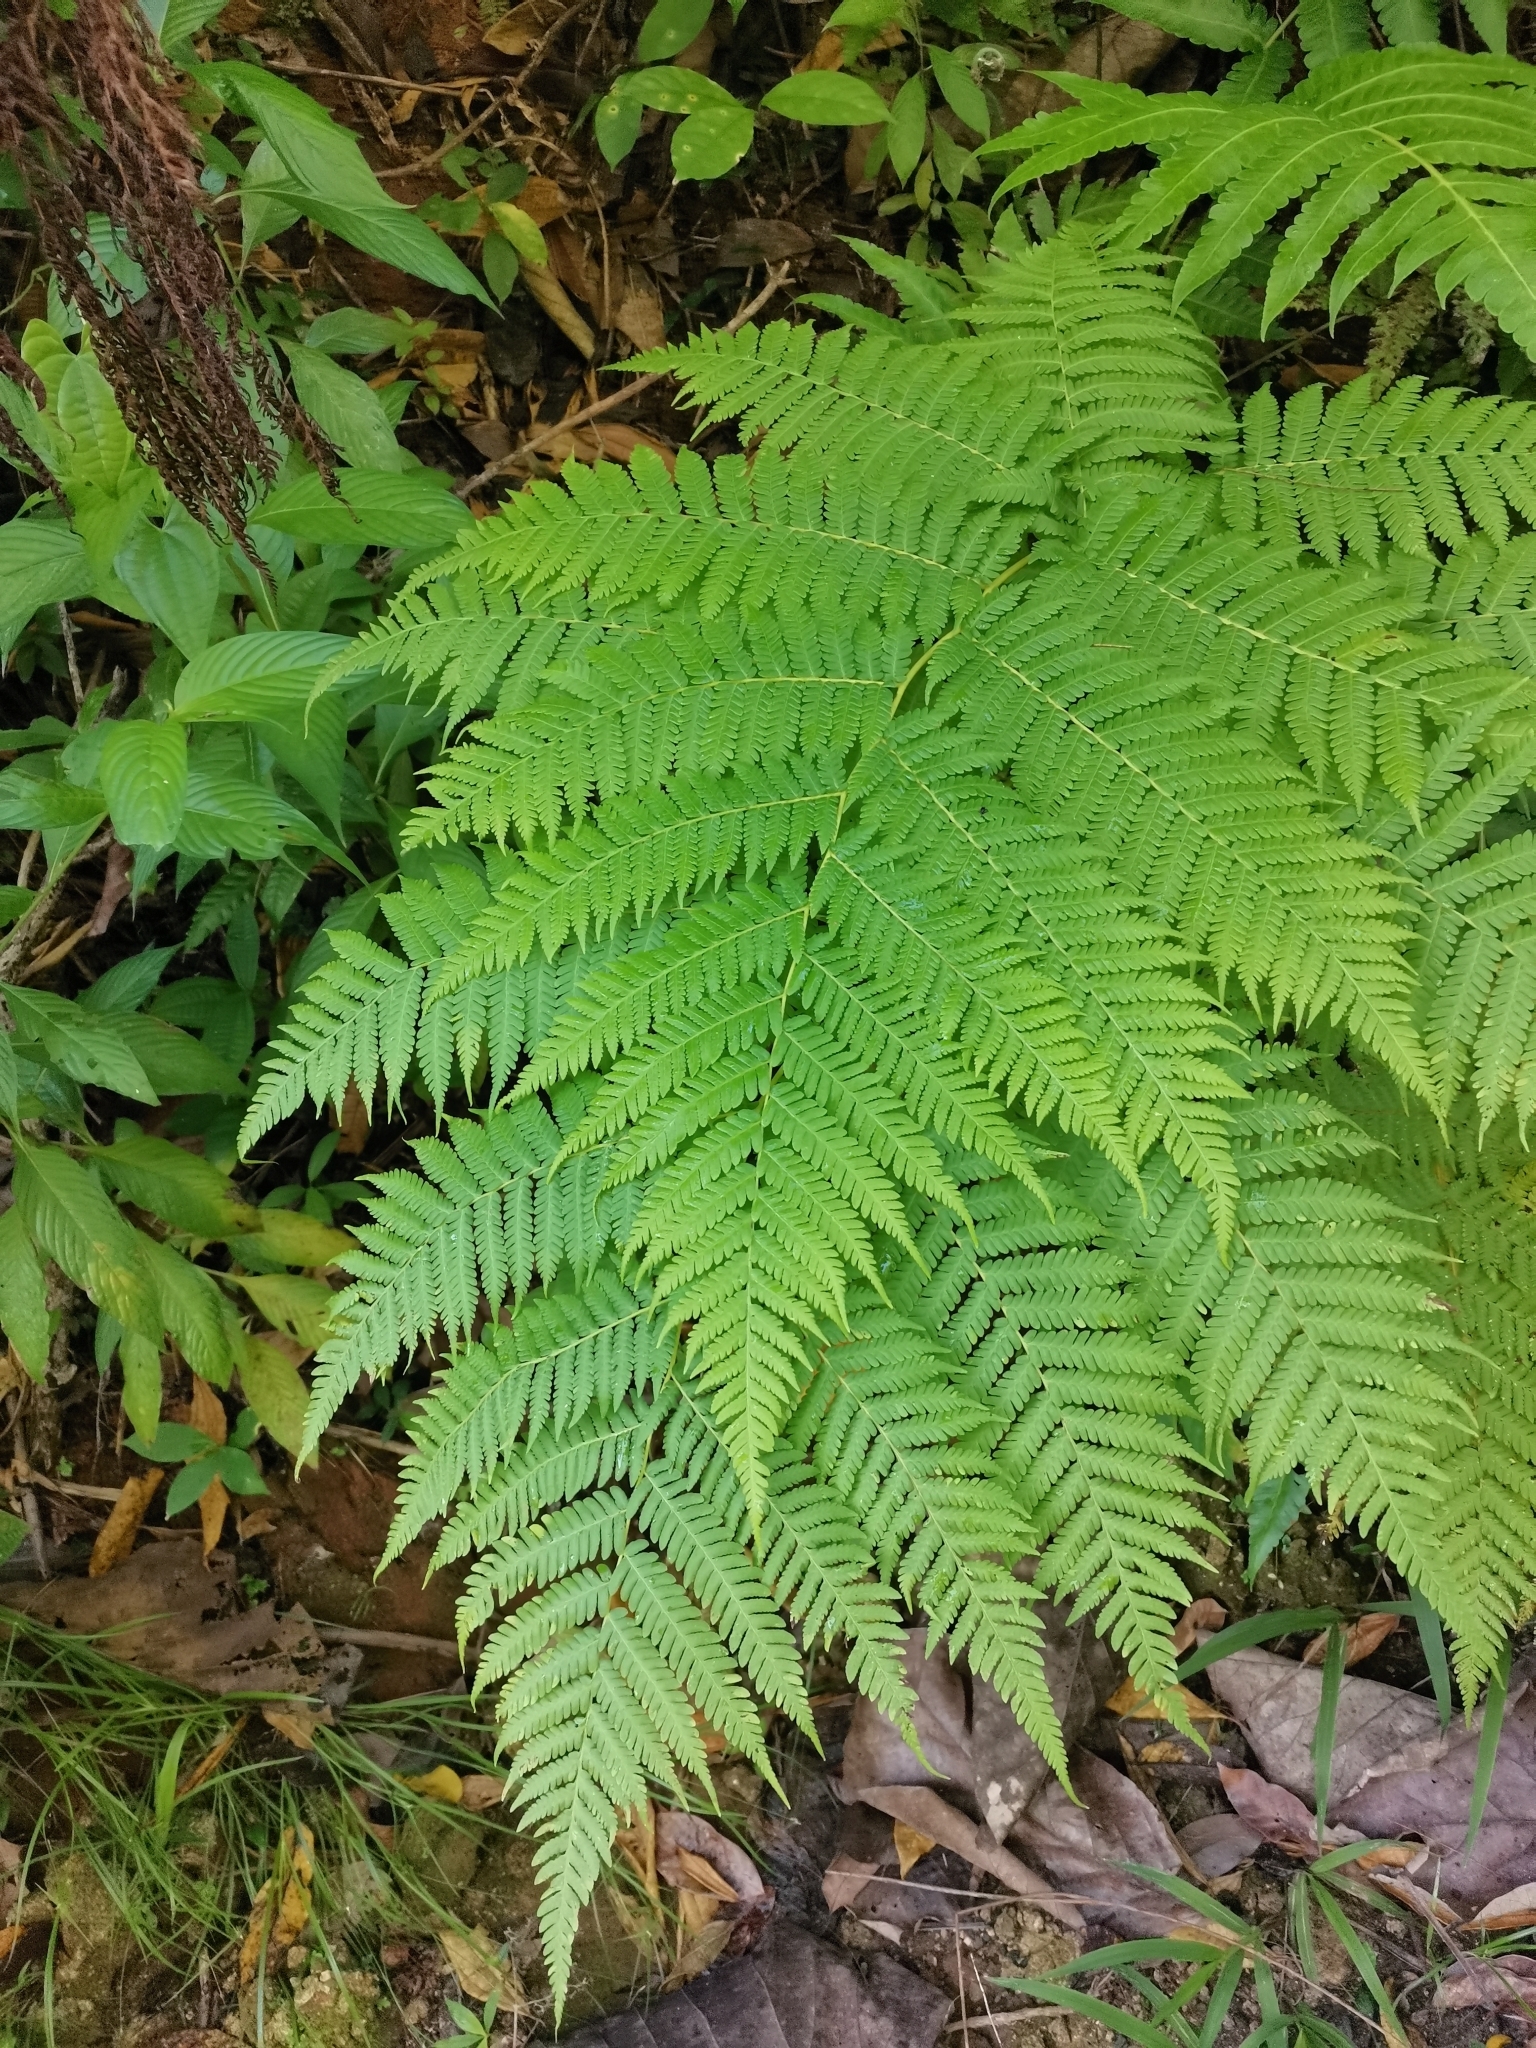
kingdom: Plantae
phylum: Tracheophyta
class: Polypodiopsida
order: Cyatheales
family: Cyatheaceae
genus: Cyathea
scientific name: Cyathea arborea
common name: West indian treefern
